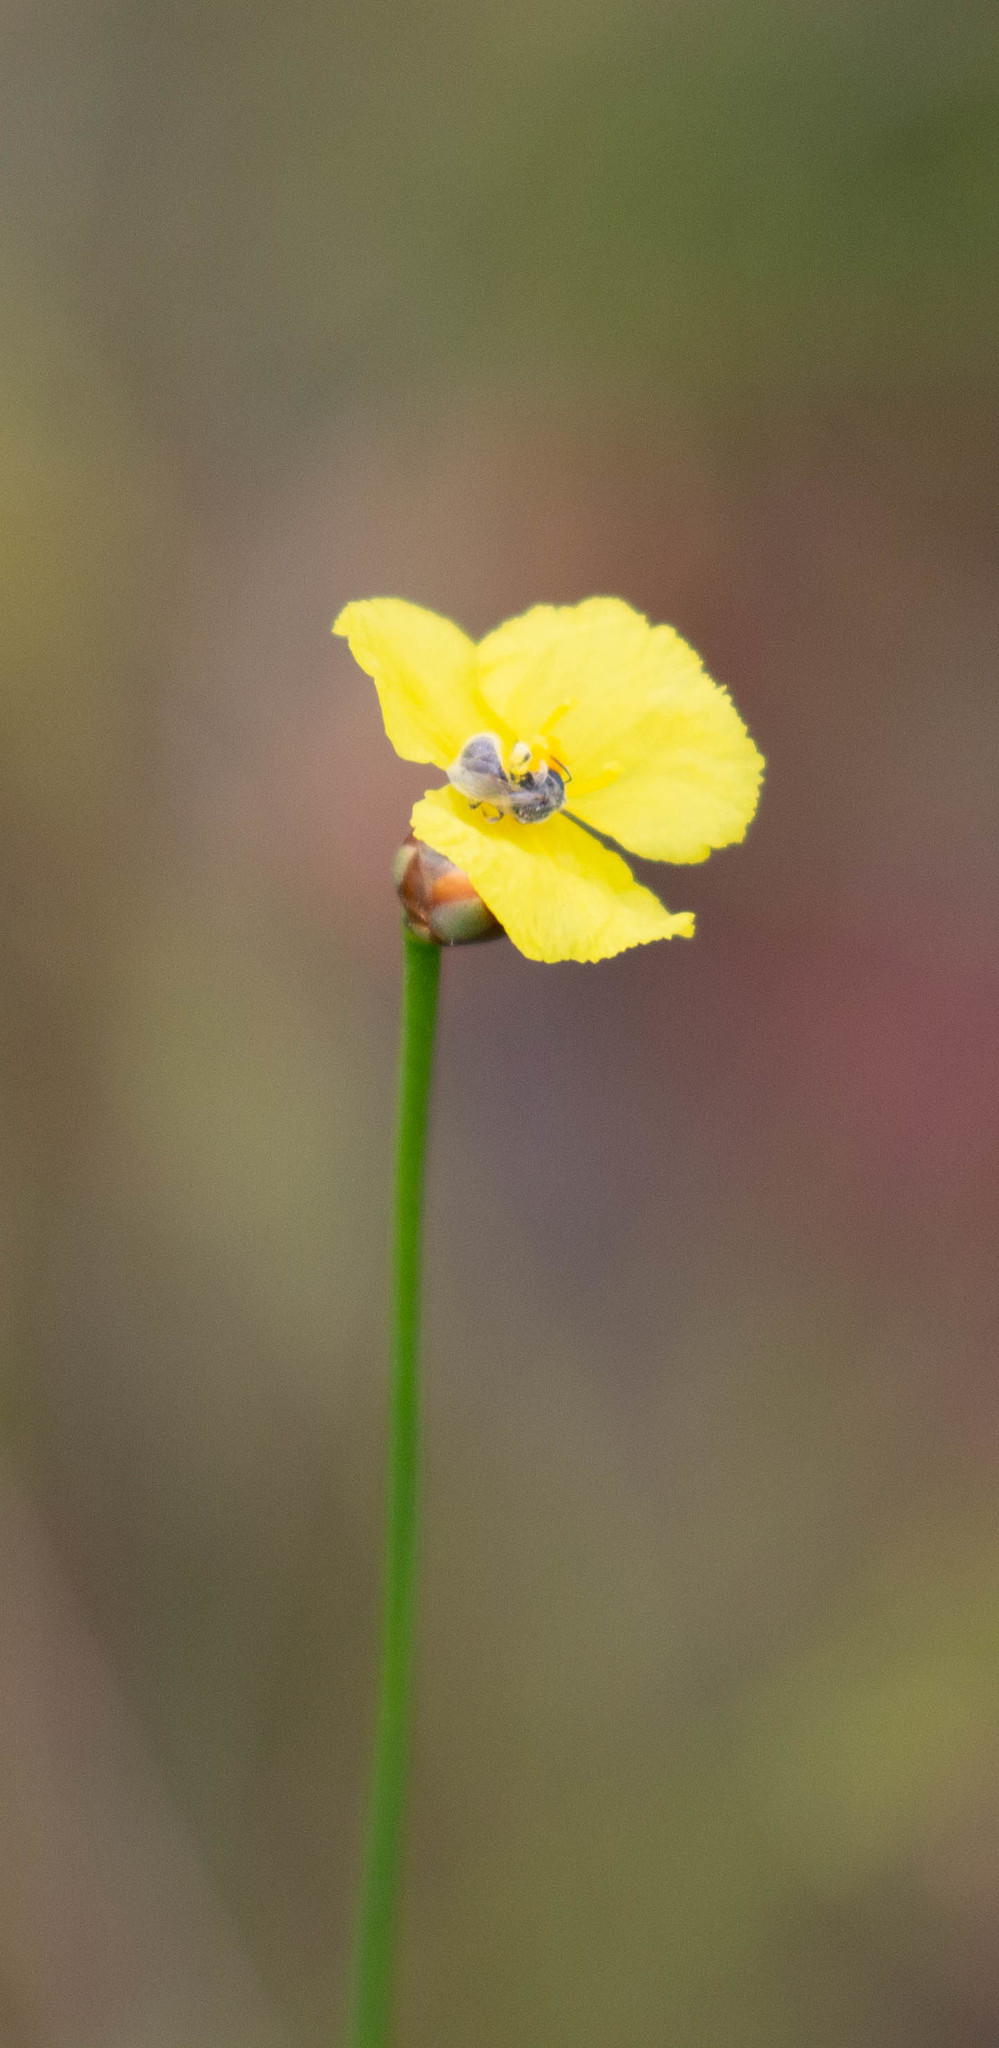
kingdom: Plantae
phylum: Tracheophyta
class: Liliopsida
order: Poales
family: Xyridaceae
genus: Xyris
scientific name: Xyris baldwiniana
